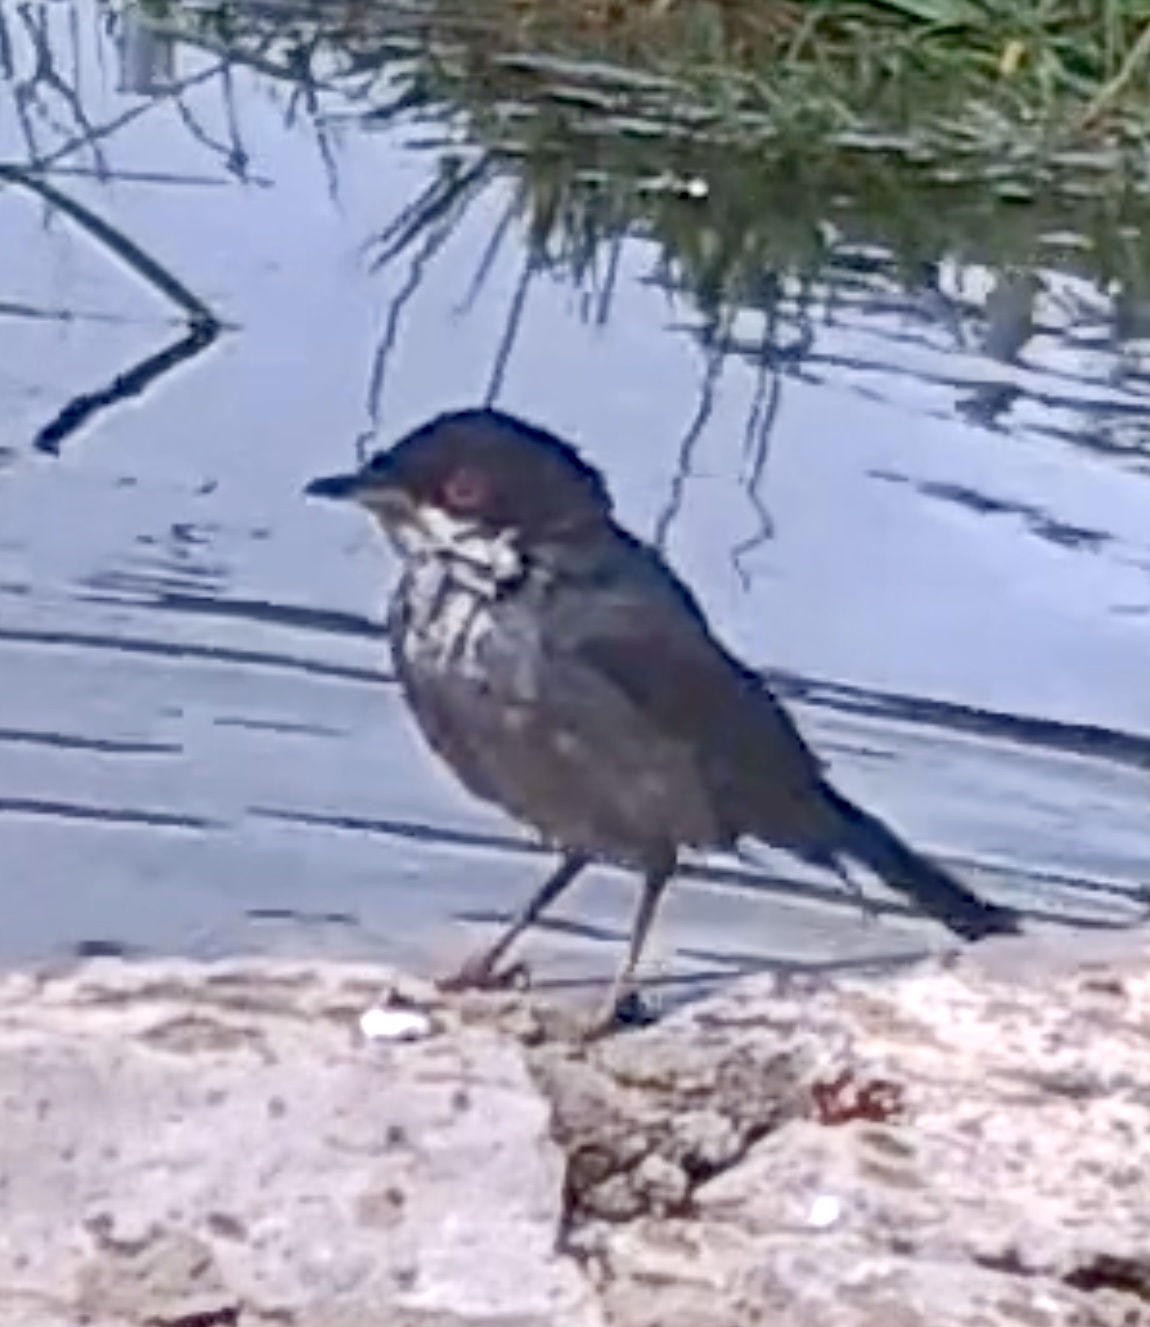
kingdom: Animalia
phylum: Chordata
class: Aves
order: Passeriformes
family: Sylviidae
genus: Curruca
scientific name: Curruca melanocephala
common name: Sardinian warbler
